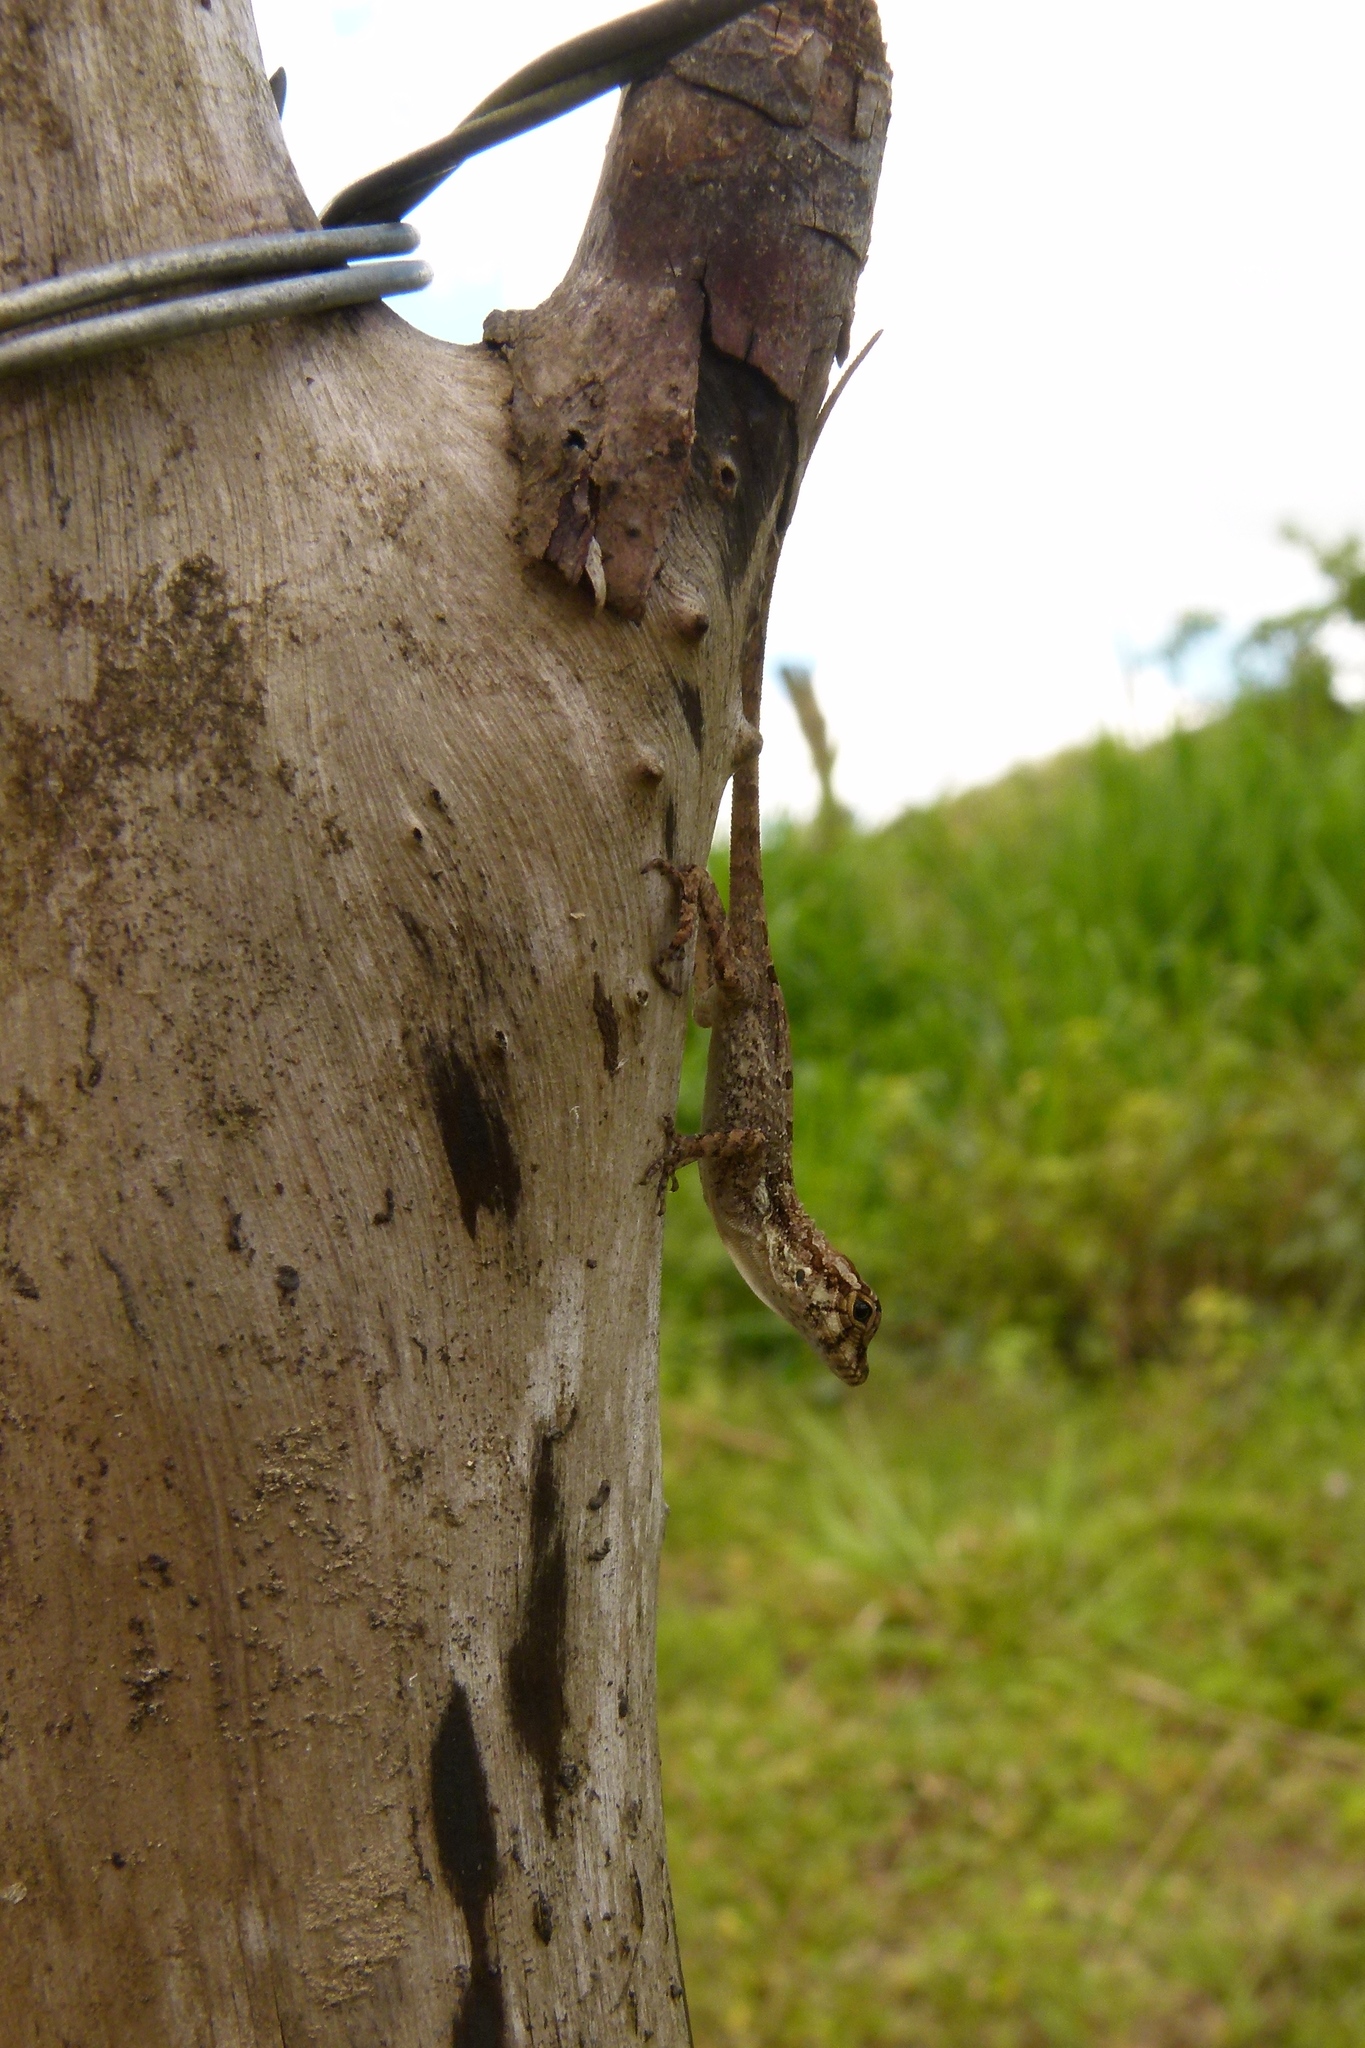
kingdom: Animalia
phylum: Chordata
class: Squamata
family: Dactyloidae
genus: Anolis
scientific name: Anolis cristatellus
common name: Crested anole
